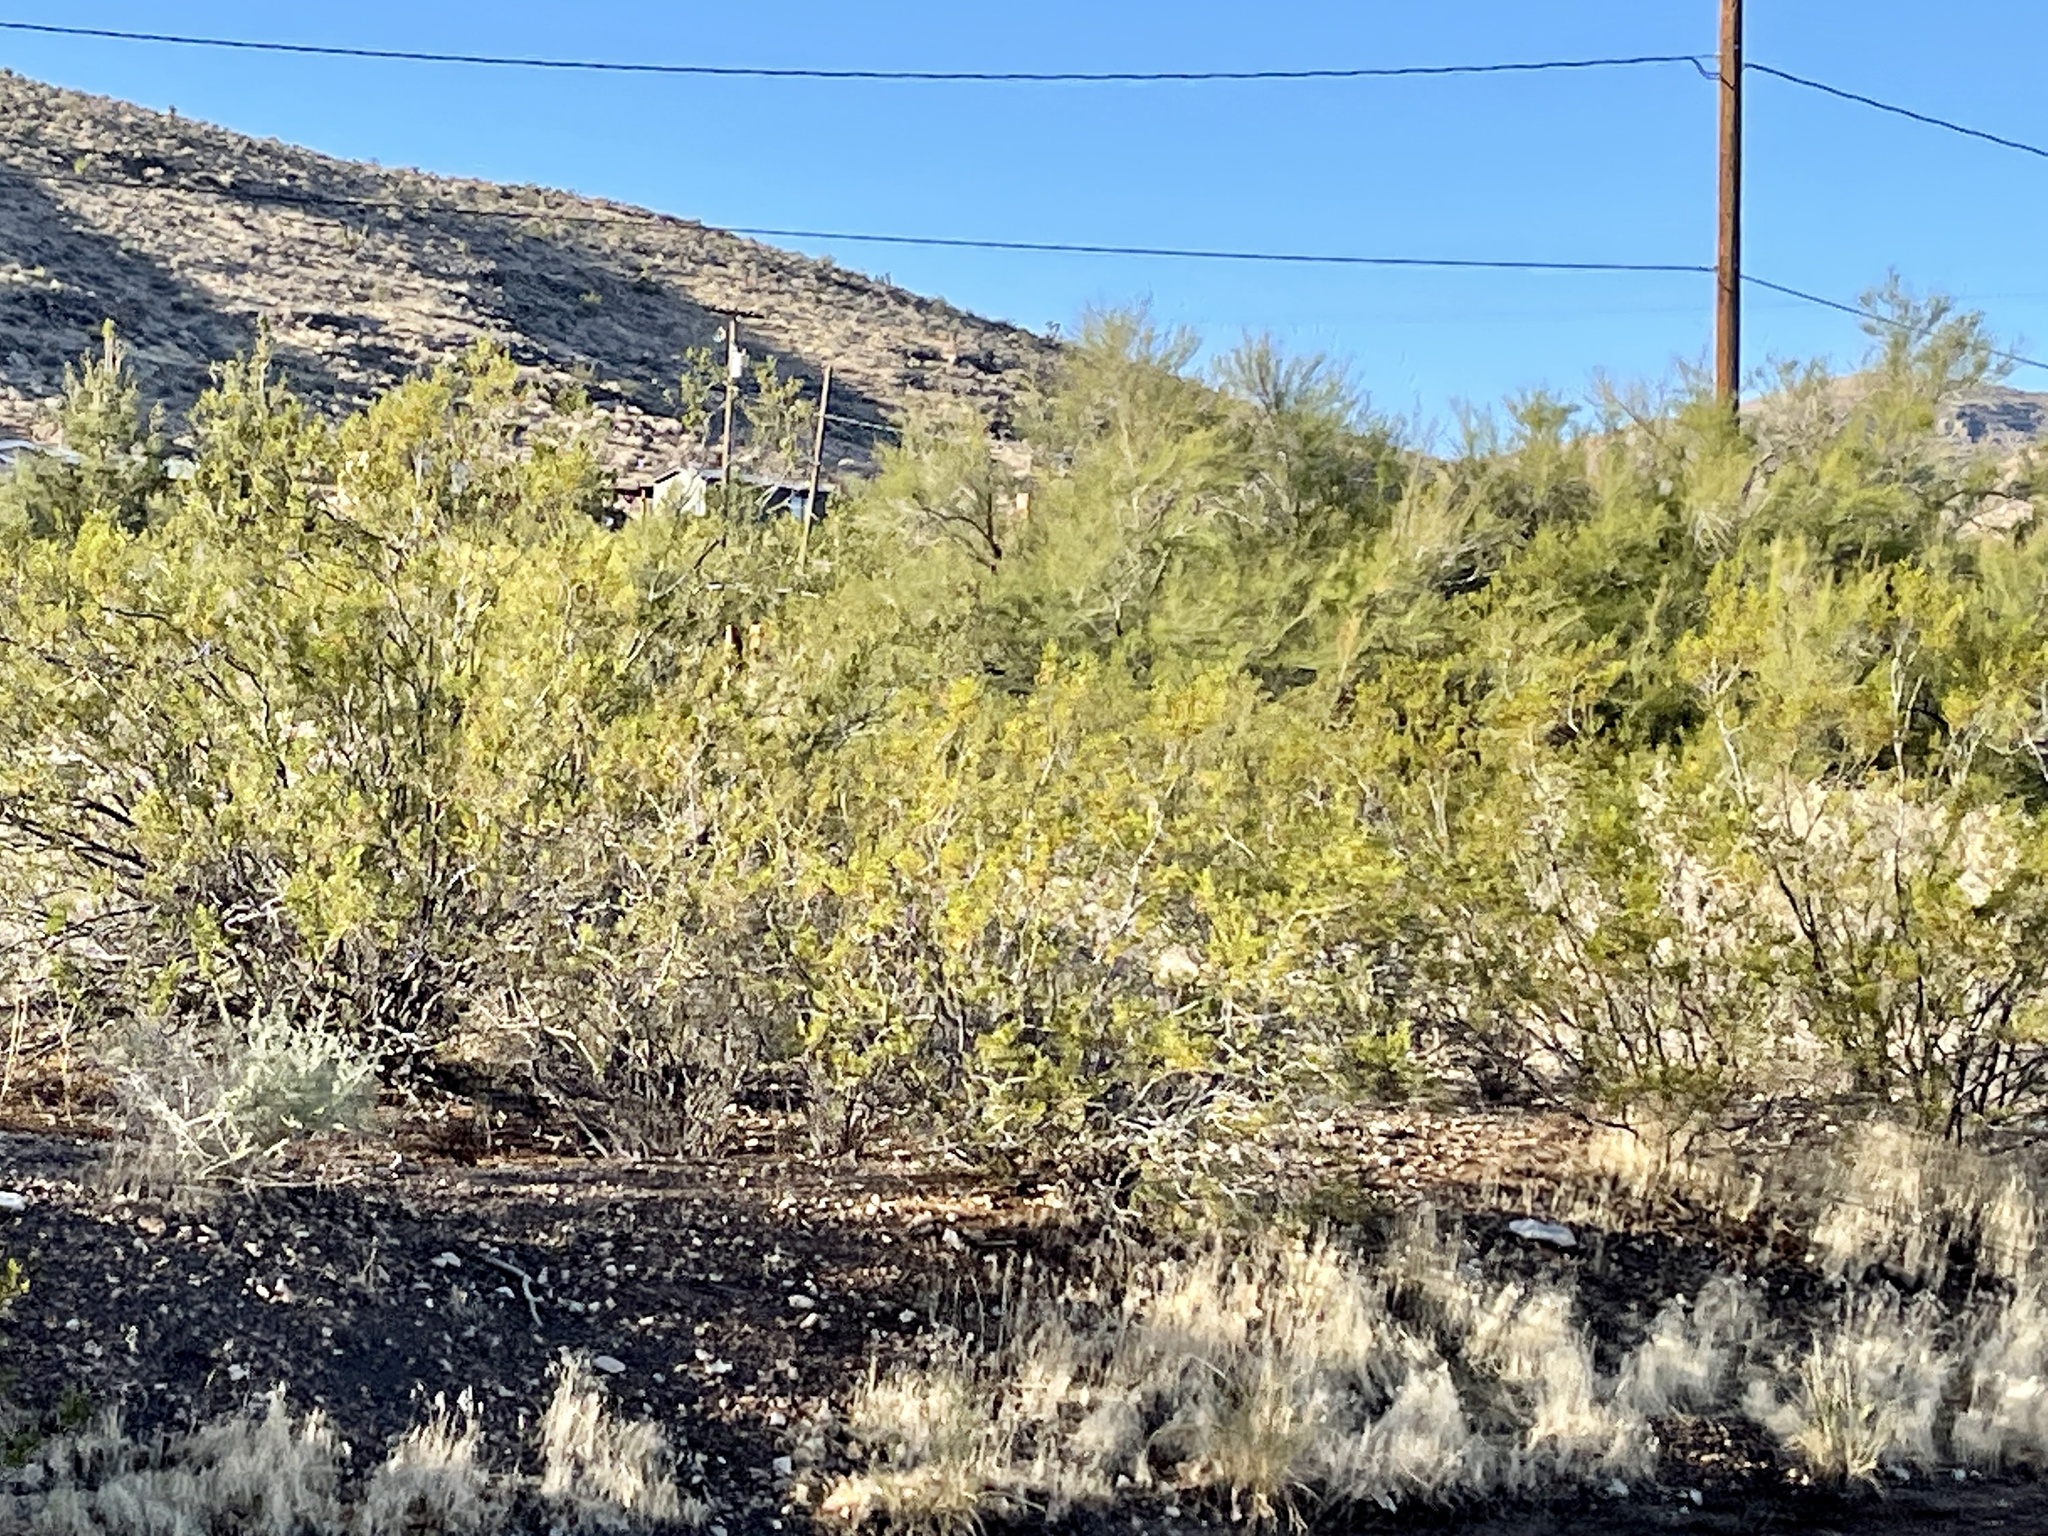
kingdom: Plantae
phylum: Tracheophyta
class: Magnoliopsida
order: Zygophyllales
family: Zygophyllaceae
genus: Larrea
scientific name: Larrea tridentata
